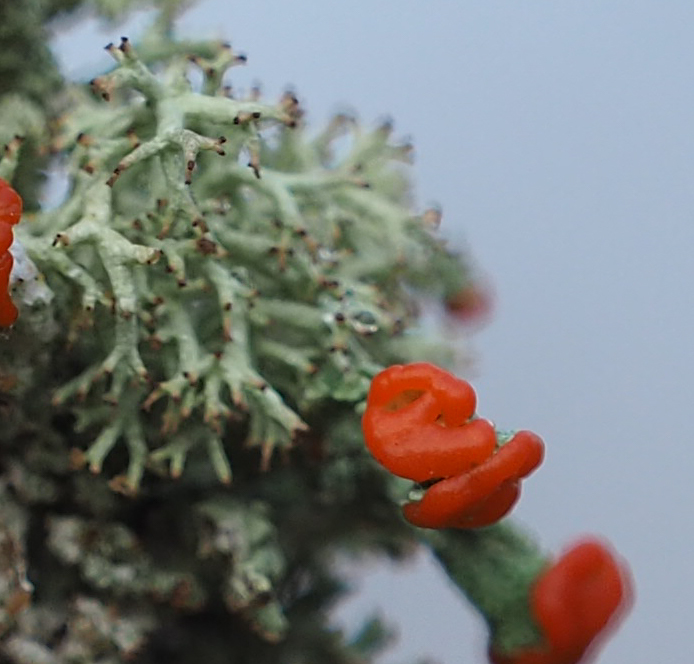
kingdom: Fungi
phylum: Ascomycota
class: Lecanoromycetes
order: Lecanorales
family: Cladoniaceae
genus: Cladonia
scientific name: Cladonia cristatella
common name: British soldier lichen
